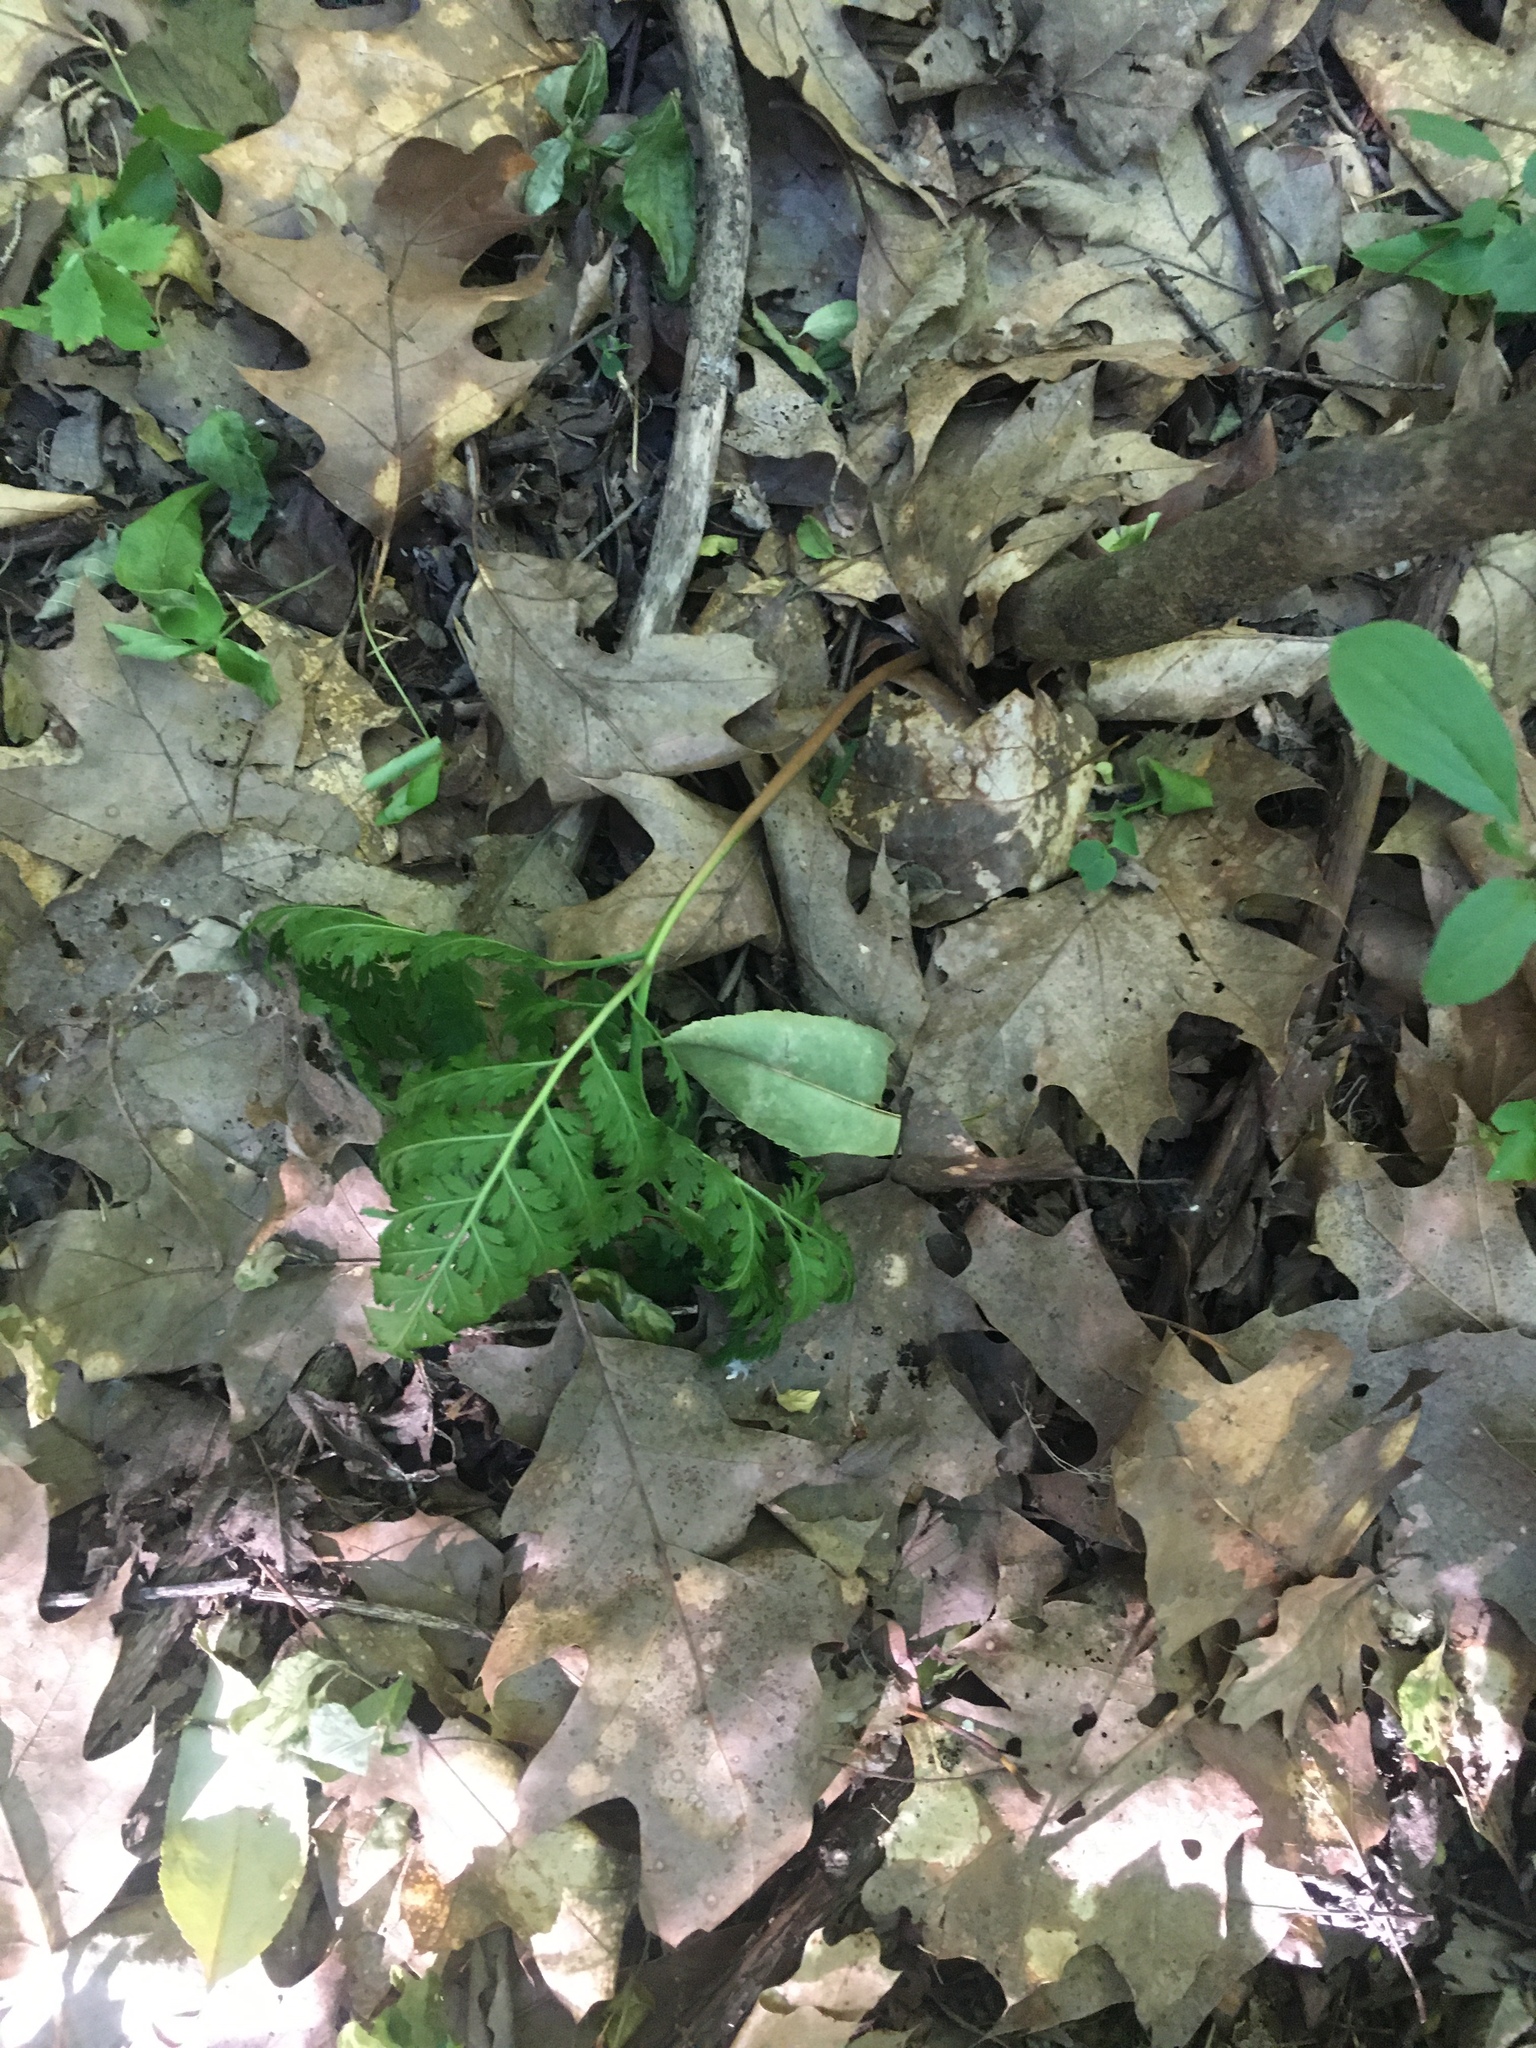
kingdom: Plantae
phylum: Tracheophyta
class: Polypodiopsida
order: Ophioglossales
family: Ophioglossaceae
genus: Botrypus
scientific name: Botrypus virginianus
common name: Common grapefern
